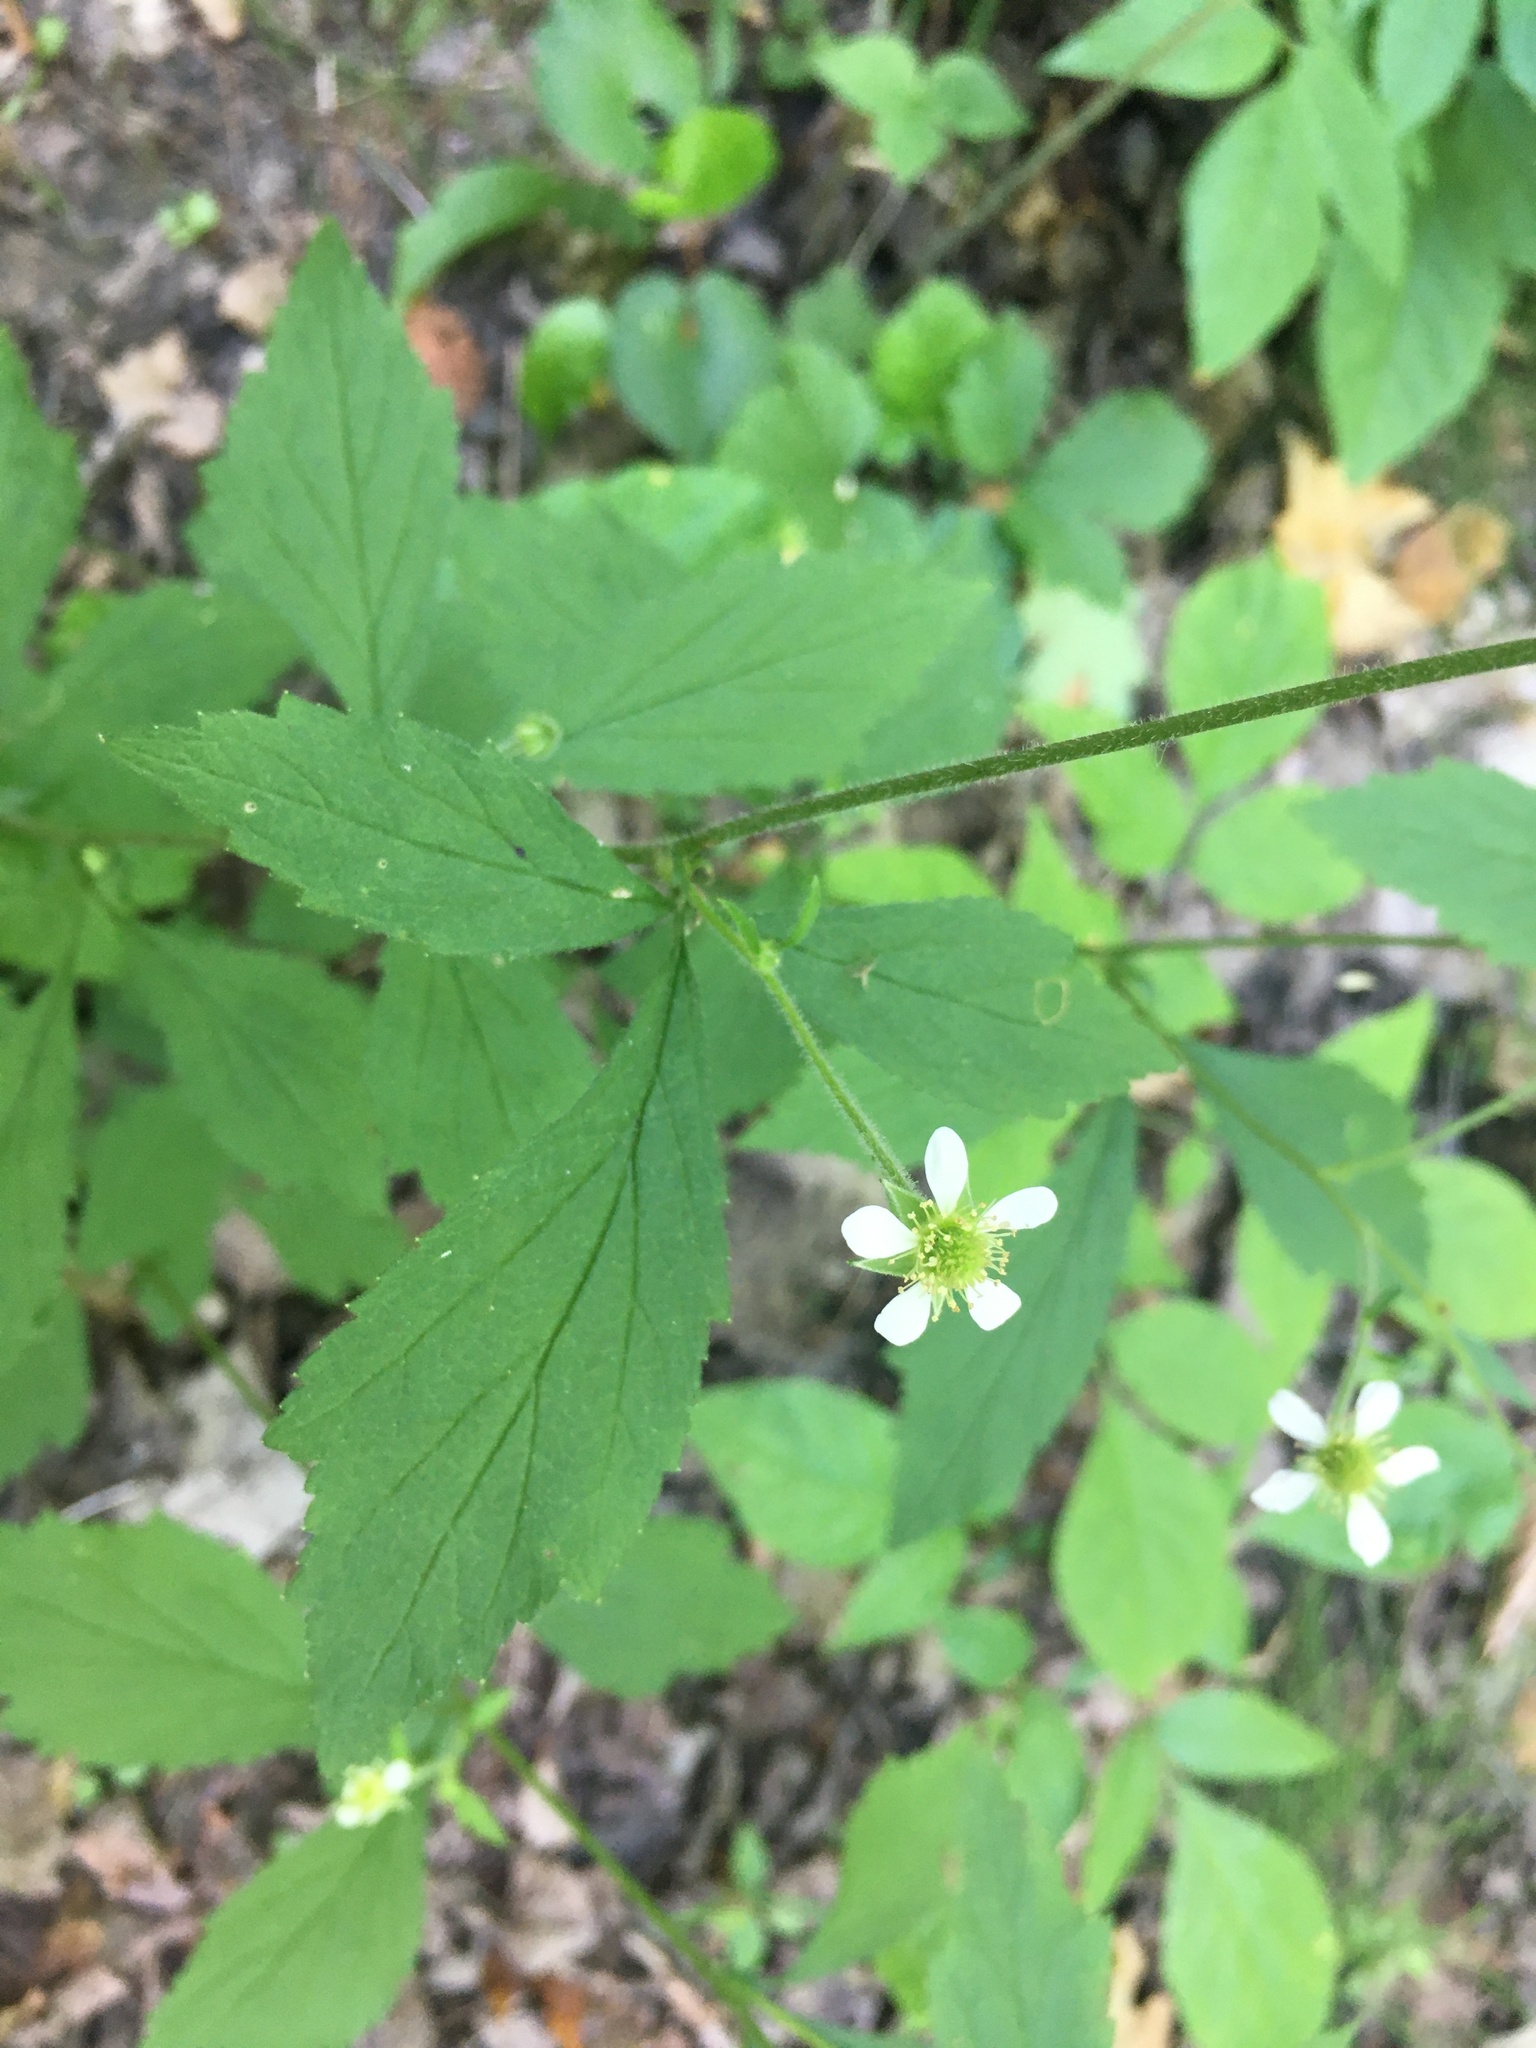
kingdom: Plantae
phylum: Tracheophyta
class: Magnoliopsida
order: Rosales
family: Rosaceae
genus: Geum
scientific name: Geum canadense
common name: White avens
